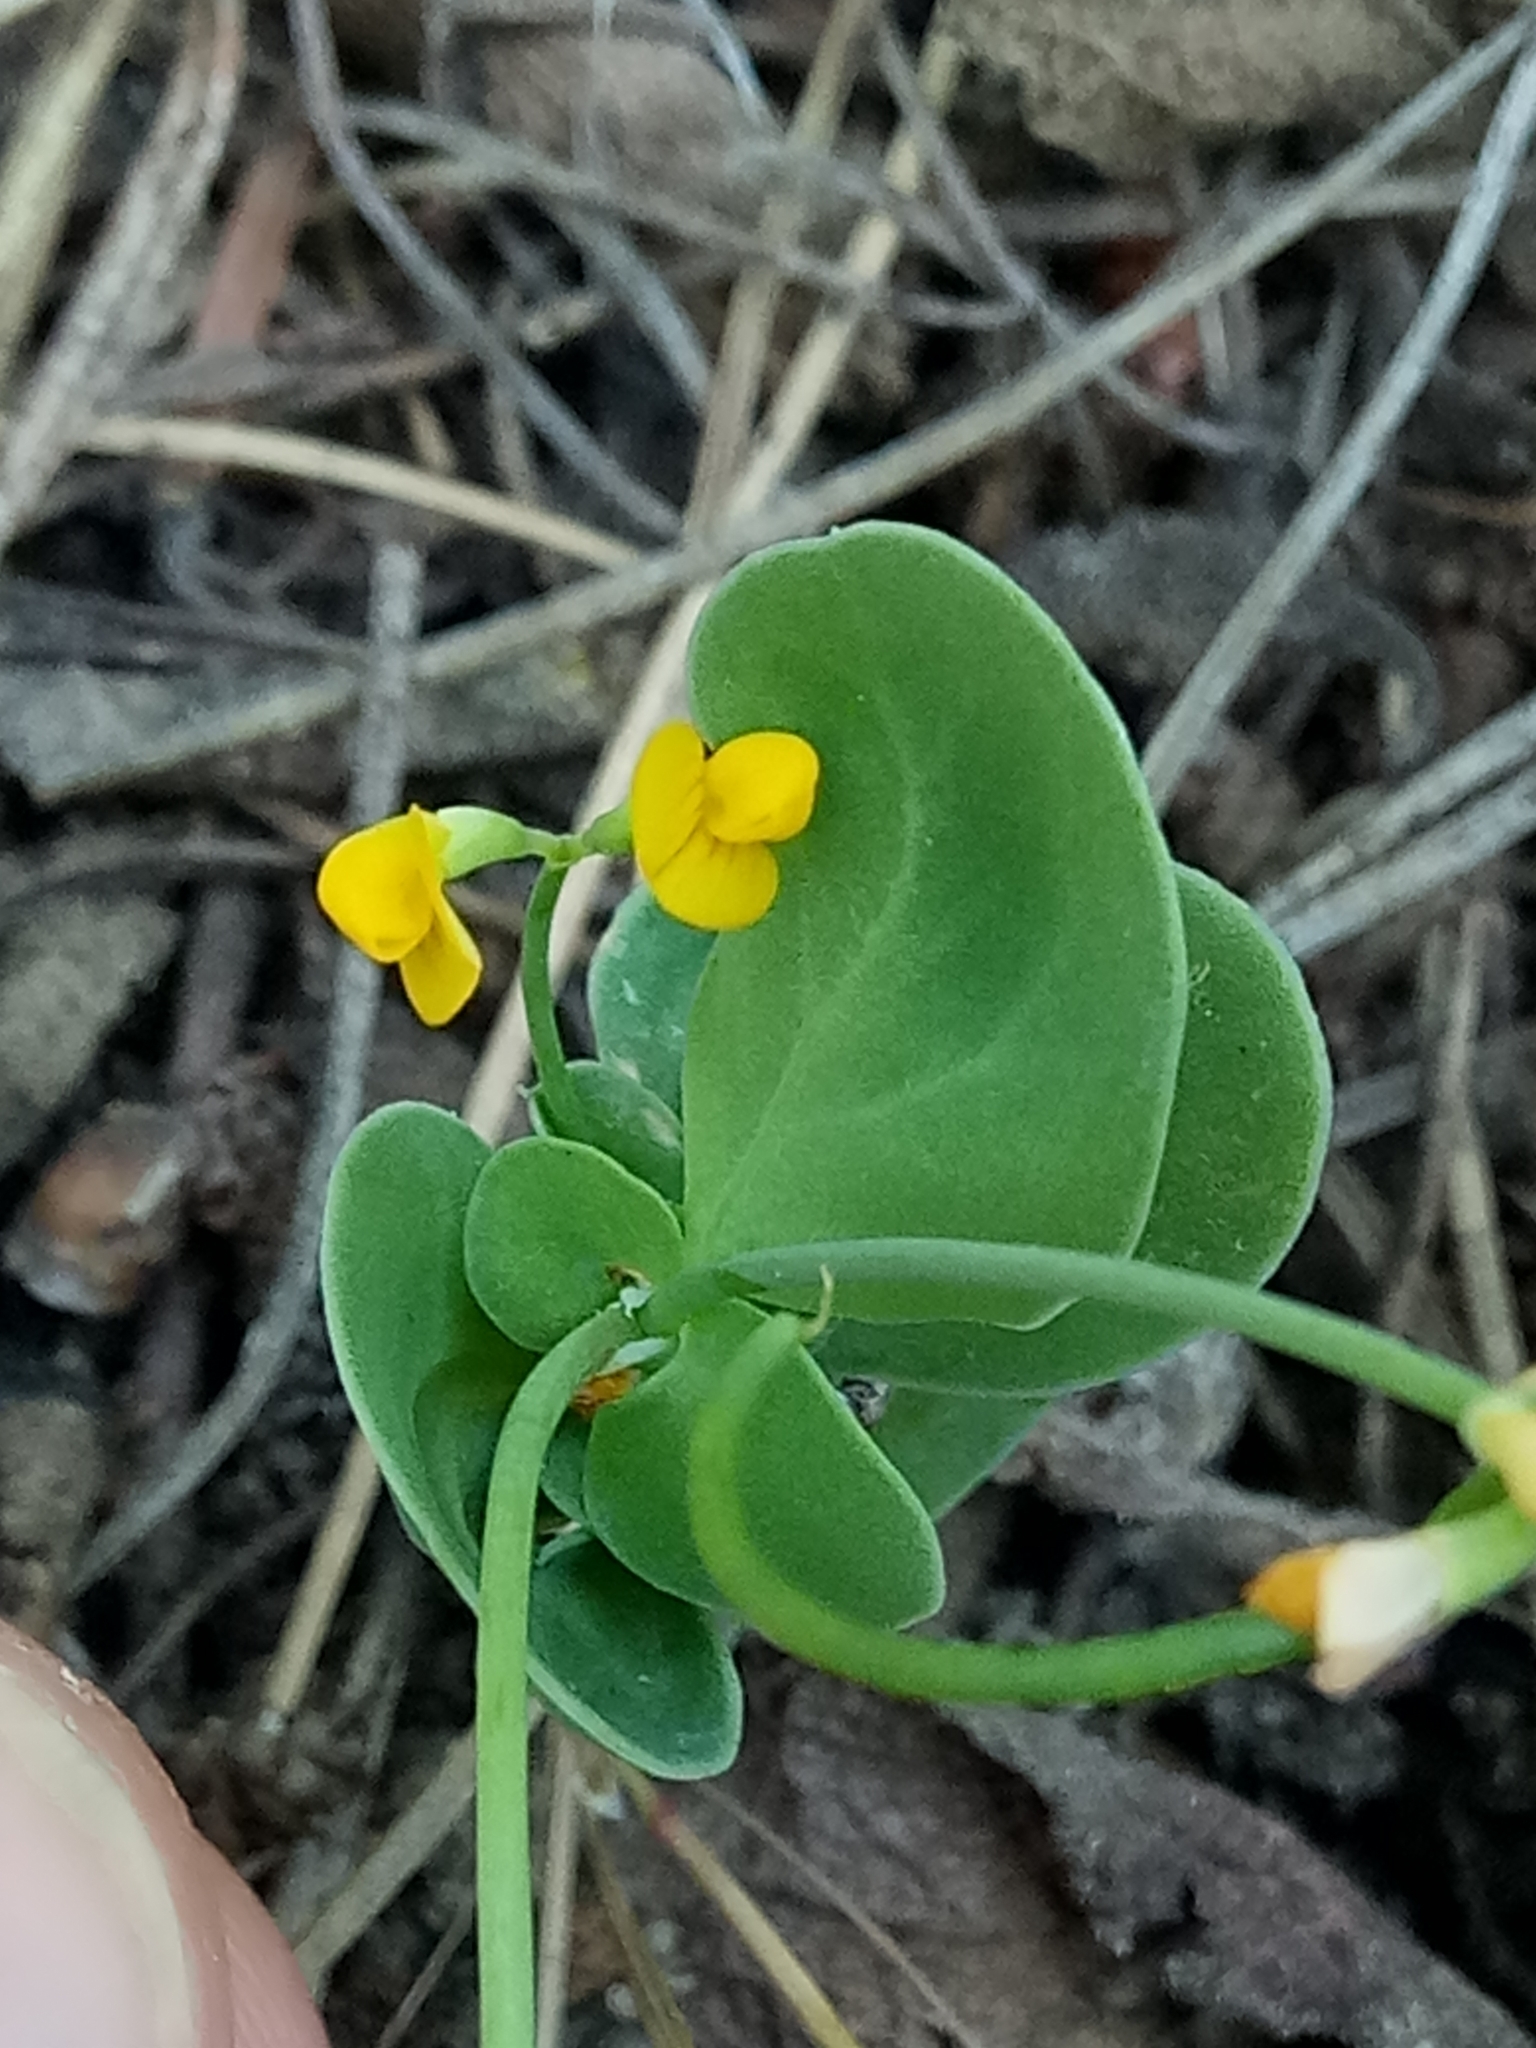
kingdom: Plantae
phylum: Tracheophyta
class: Magnoliopsida
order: Fabales
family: Fabaceae
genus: Coronilla
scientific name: Coronilla scorpioides
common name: Annual scorpion-vetch
